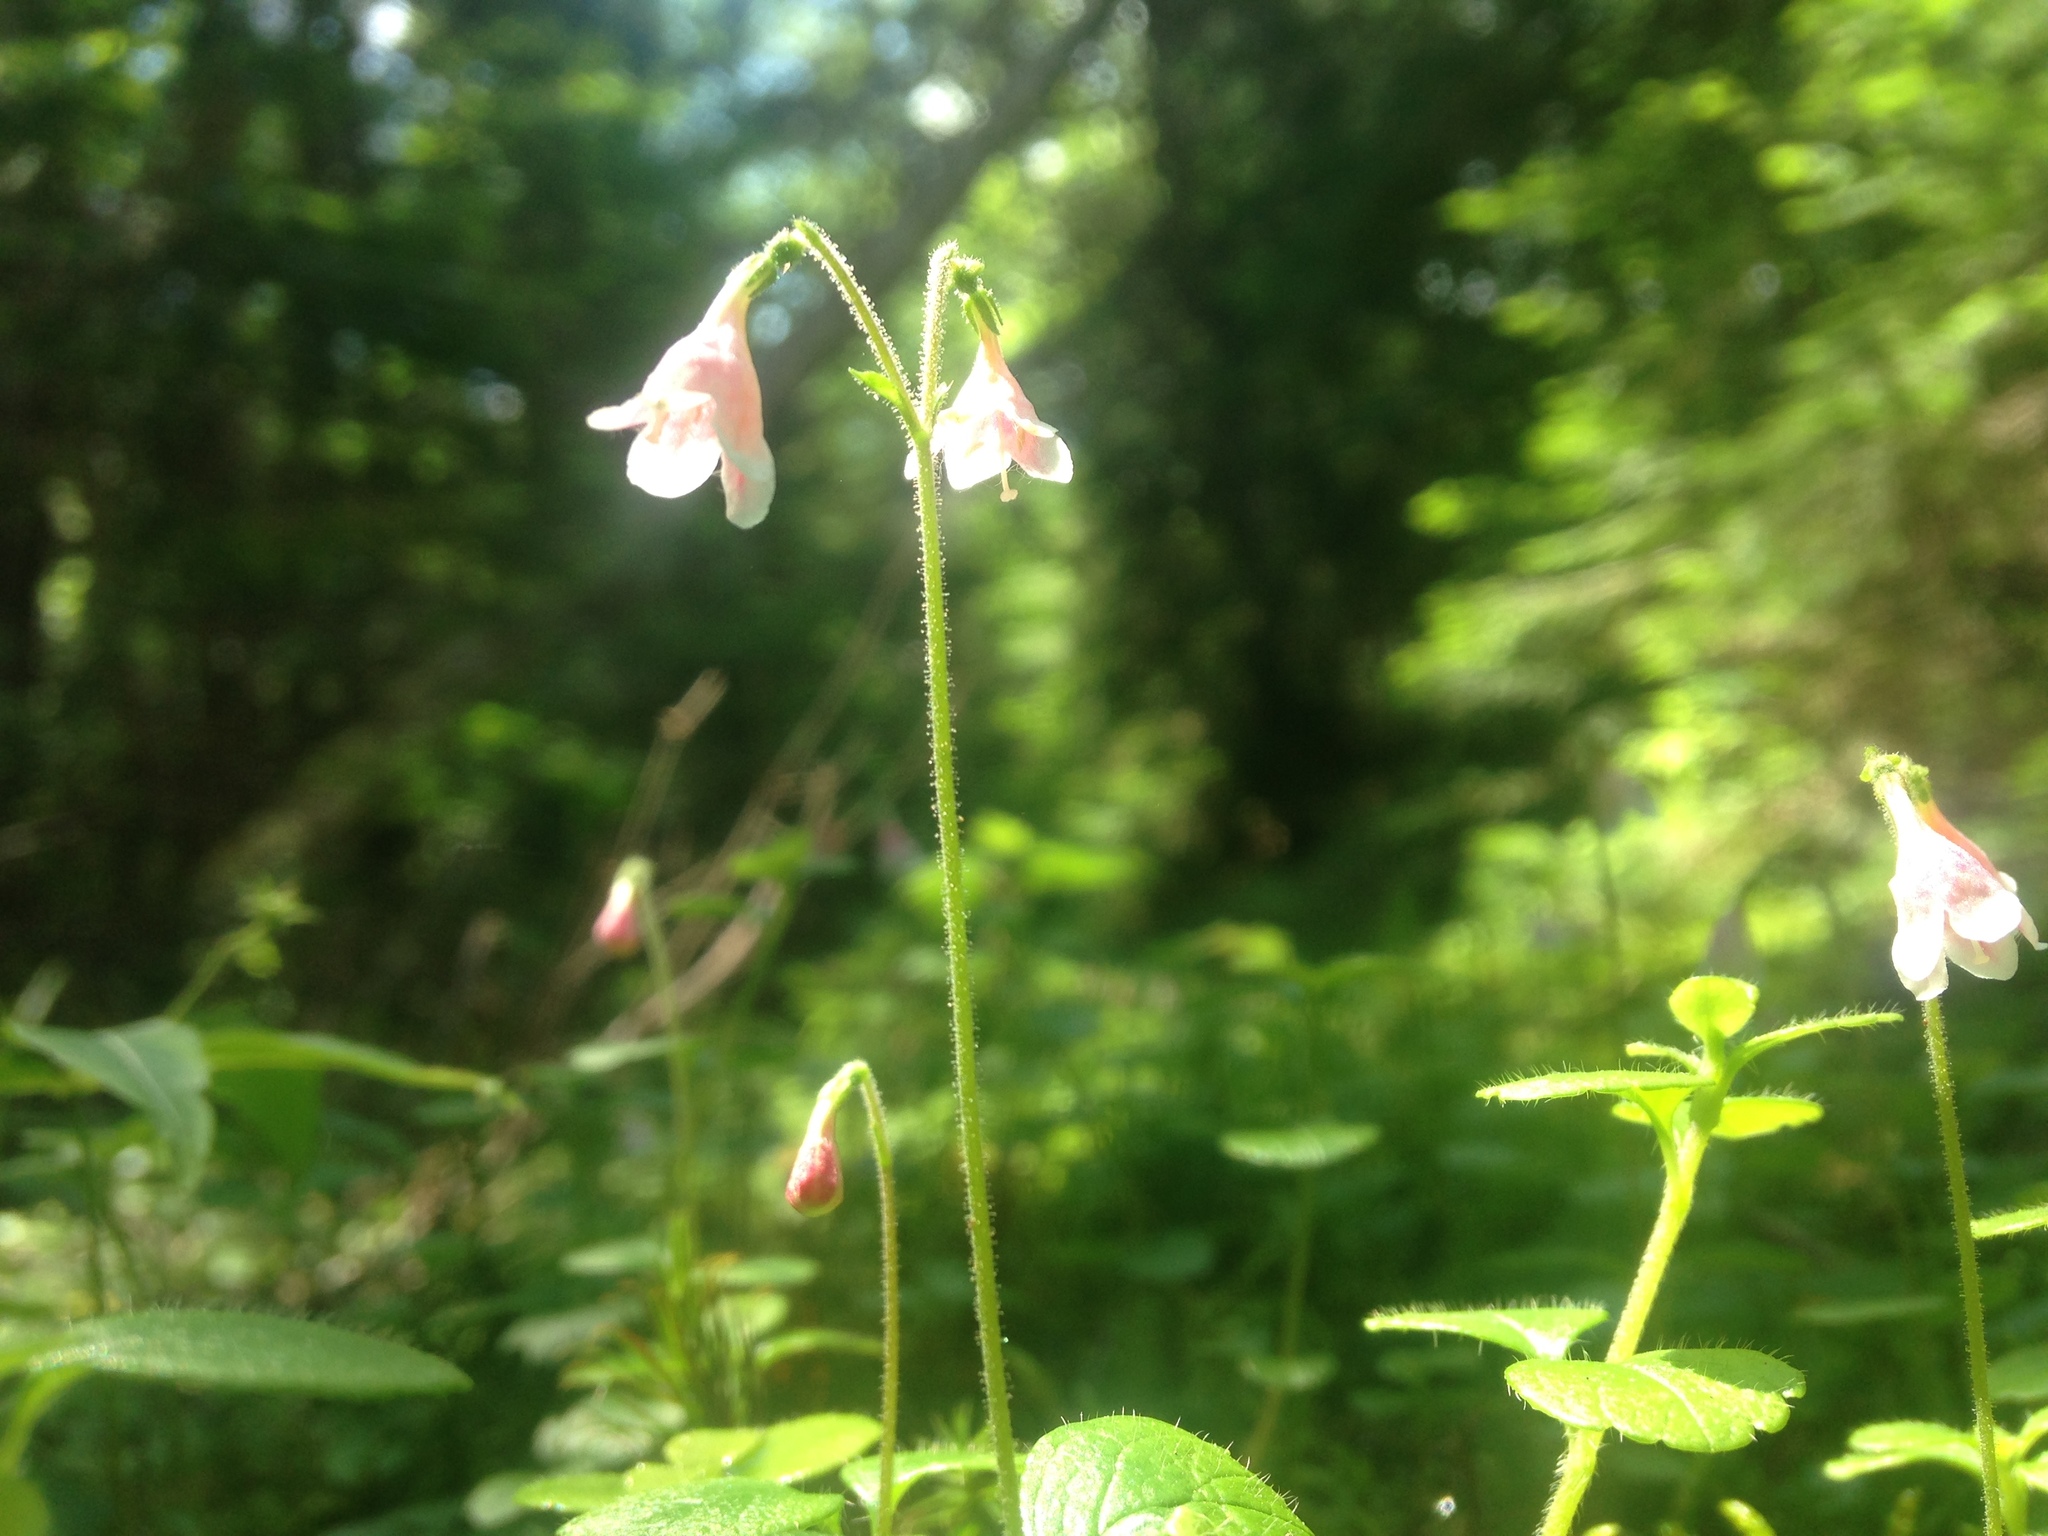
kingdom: Plantae
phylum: Tracheophyta
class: Magnoliopsida
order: Dipsacales
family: Caprifoliaceae
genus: Linnaea
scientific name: Linnaea borealis
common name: Twinflower
